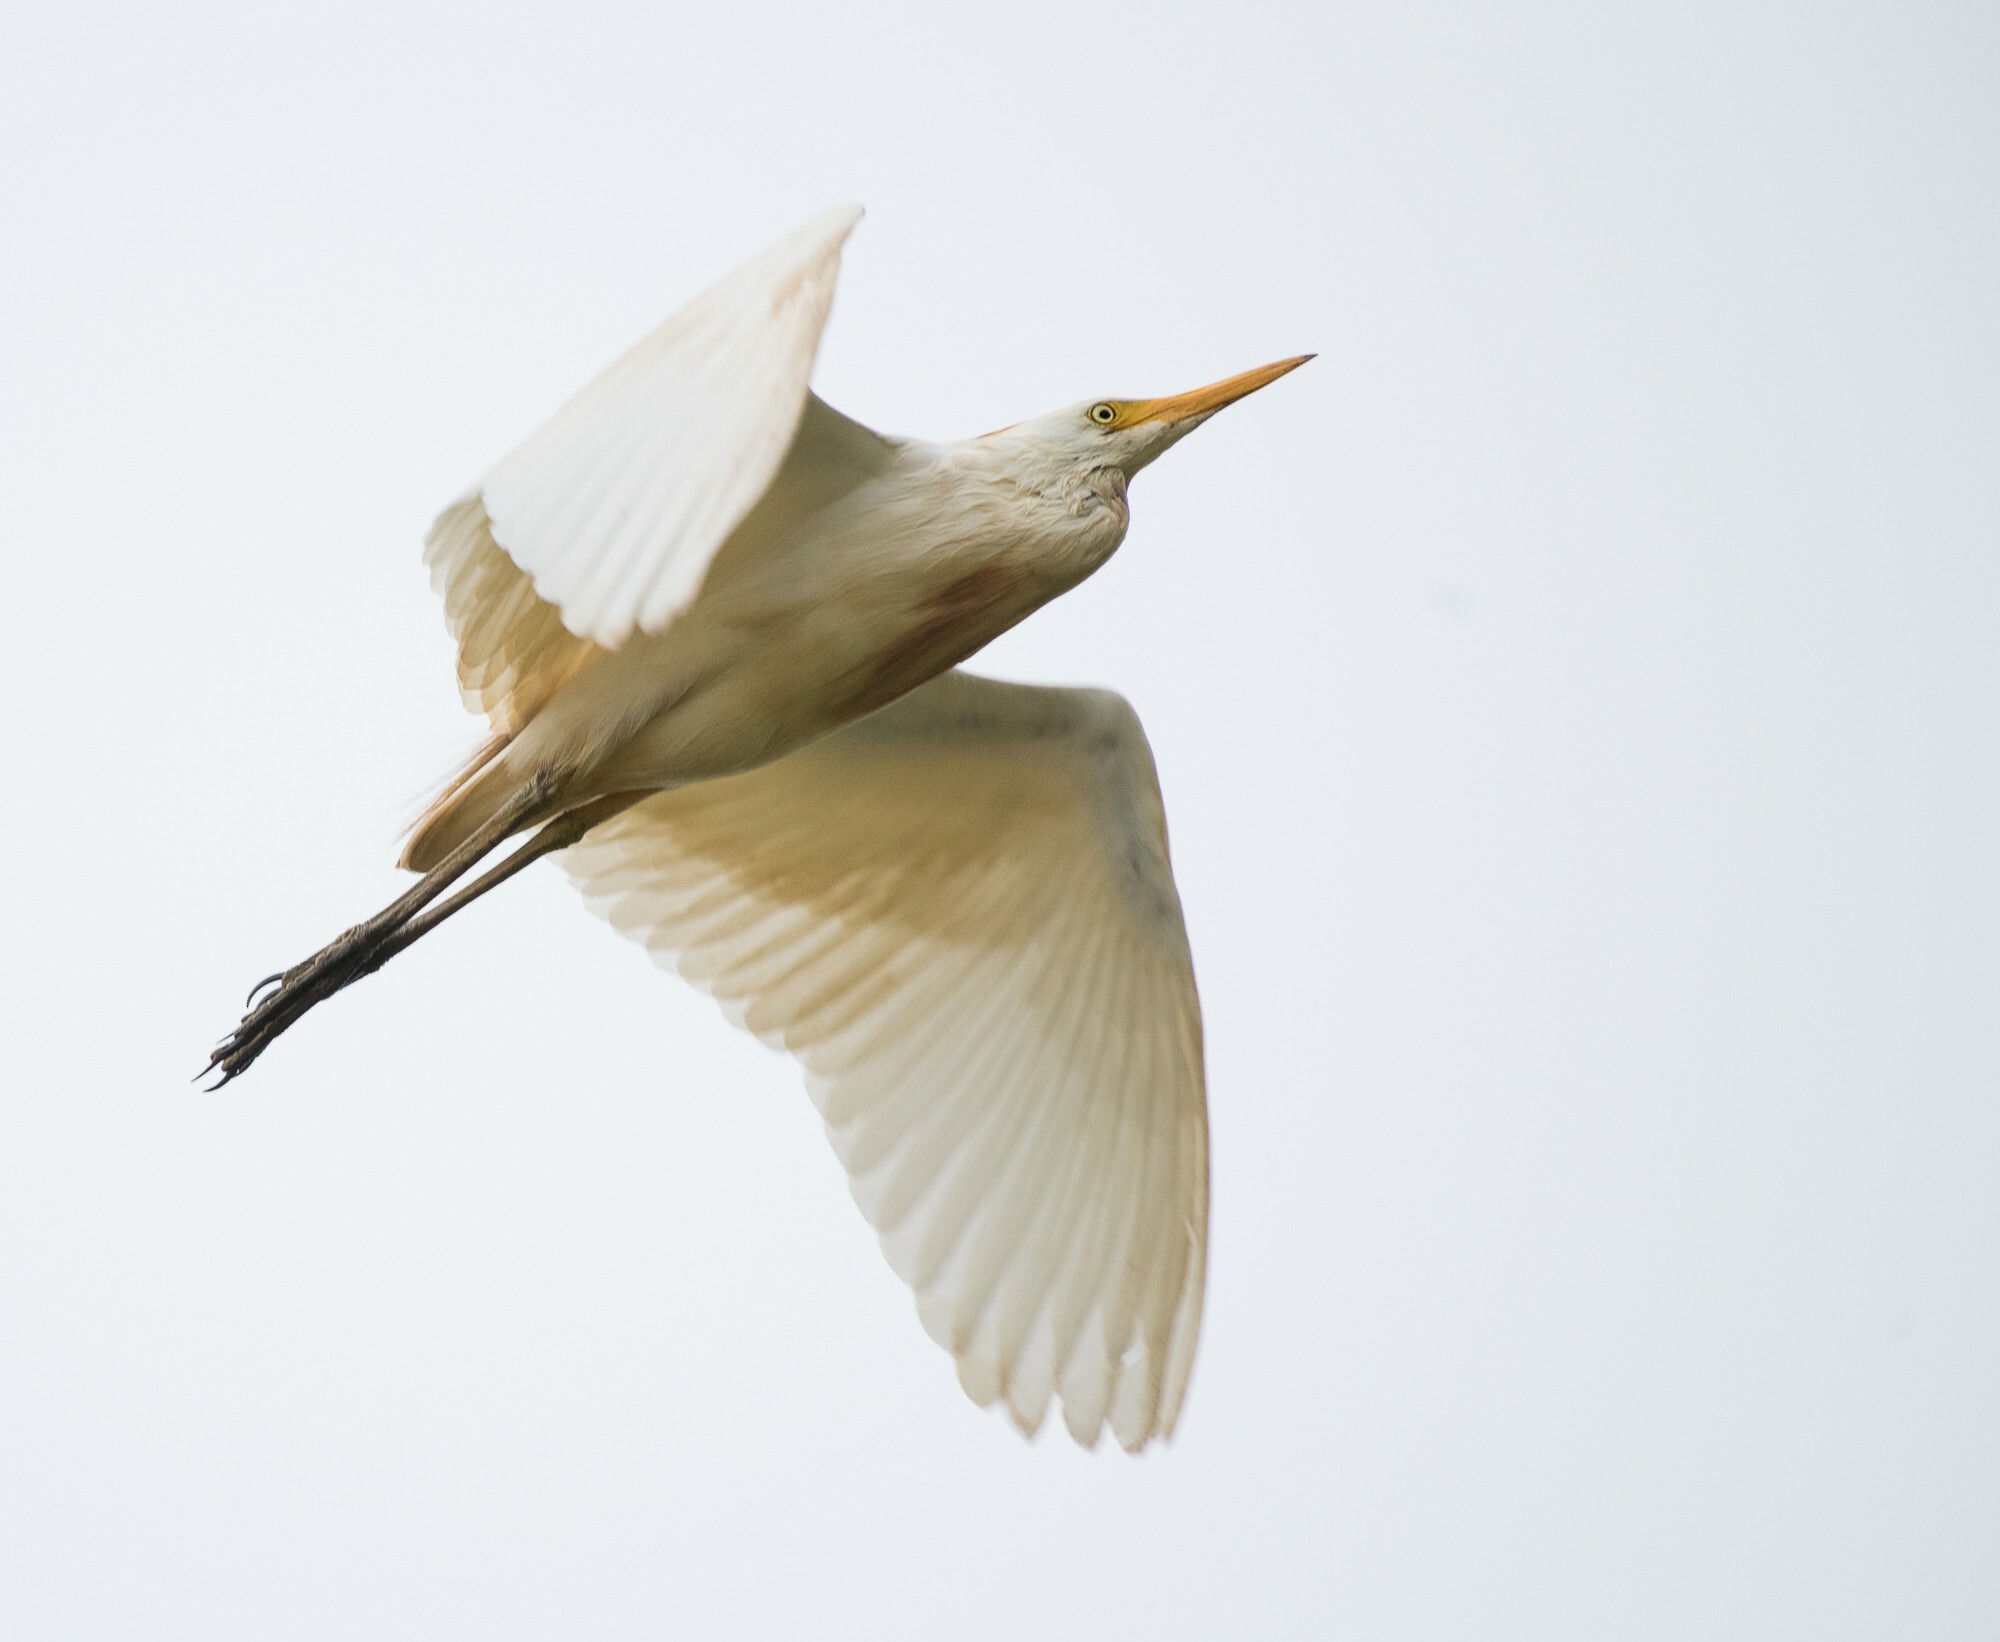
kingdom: Animalia
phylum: Chordata
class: Aves
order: Pelecaniformes
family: Ardeidae
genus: Bubulcus
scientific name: Bubulcus ibis
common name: Cattle egret
